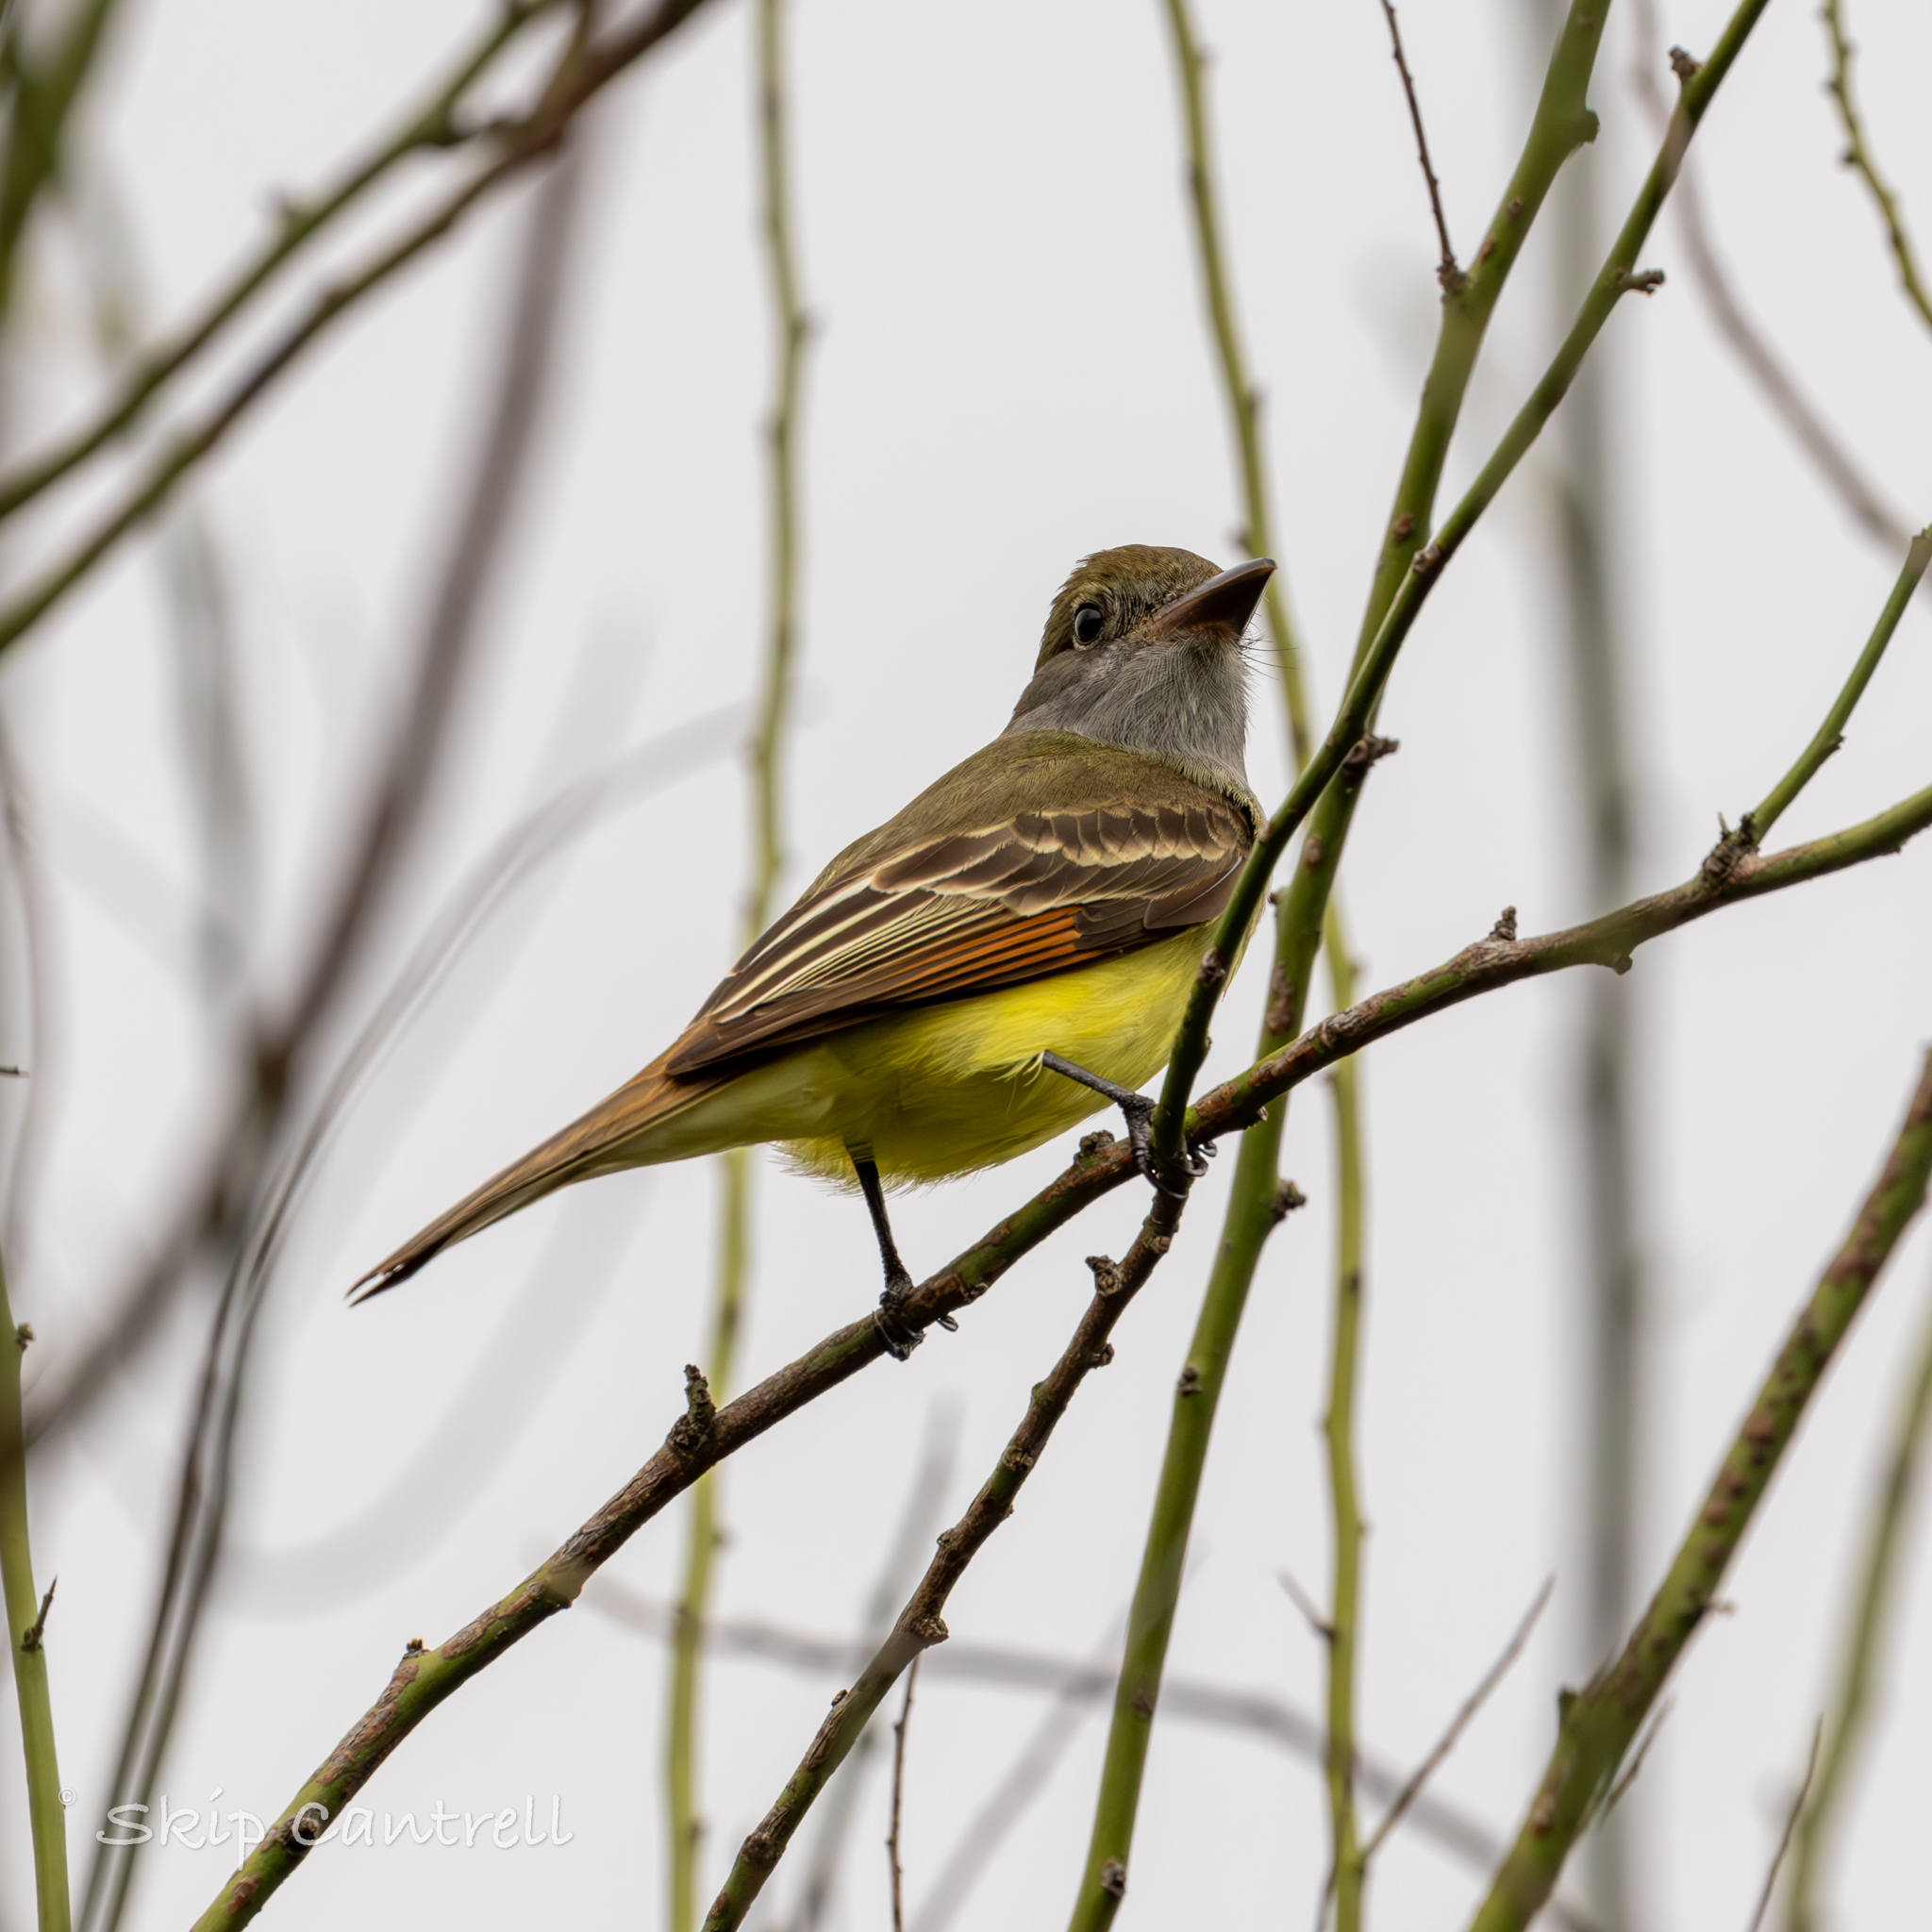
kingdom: Animalia
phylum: Chordata
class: Aves
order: Passeriformes
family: Tyrannidae
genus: Myiarchus
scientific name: Myiarchus crinitus
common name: Great crested flycatcher
